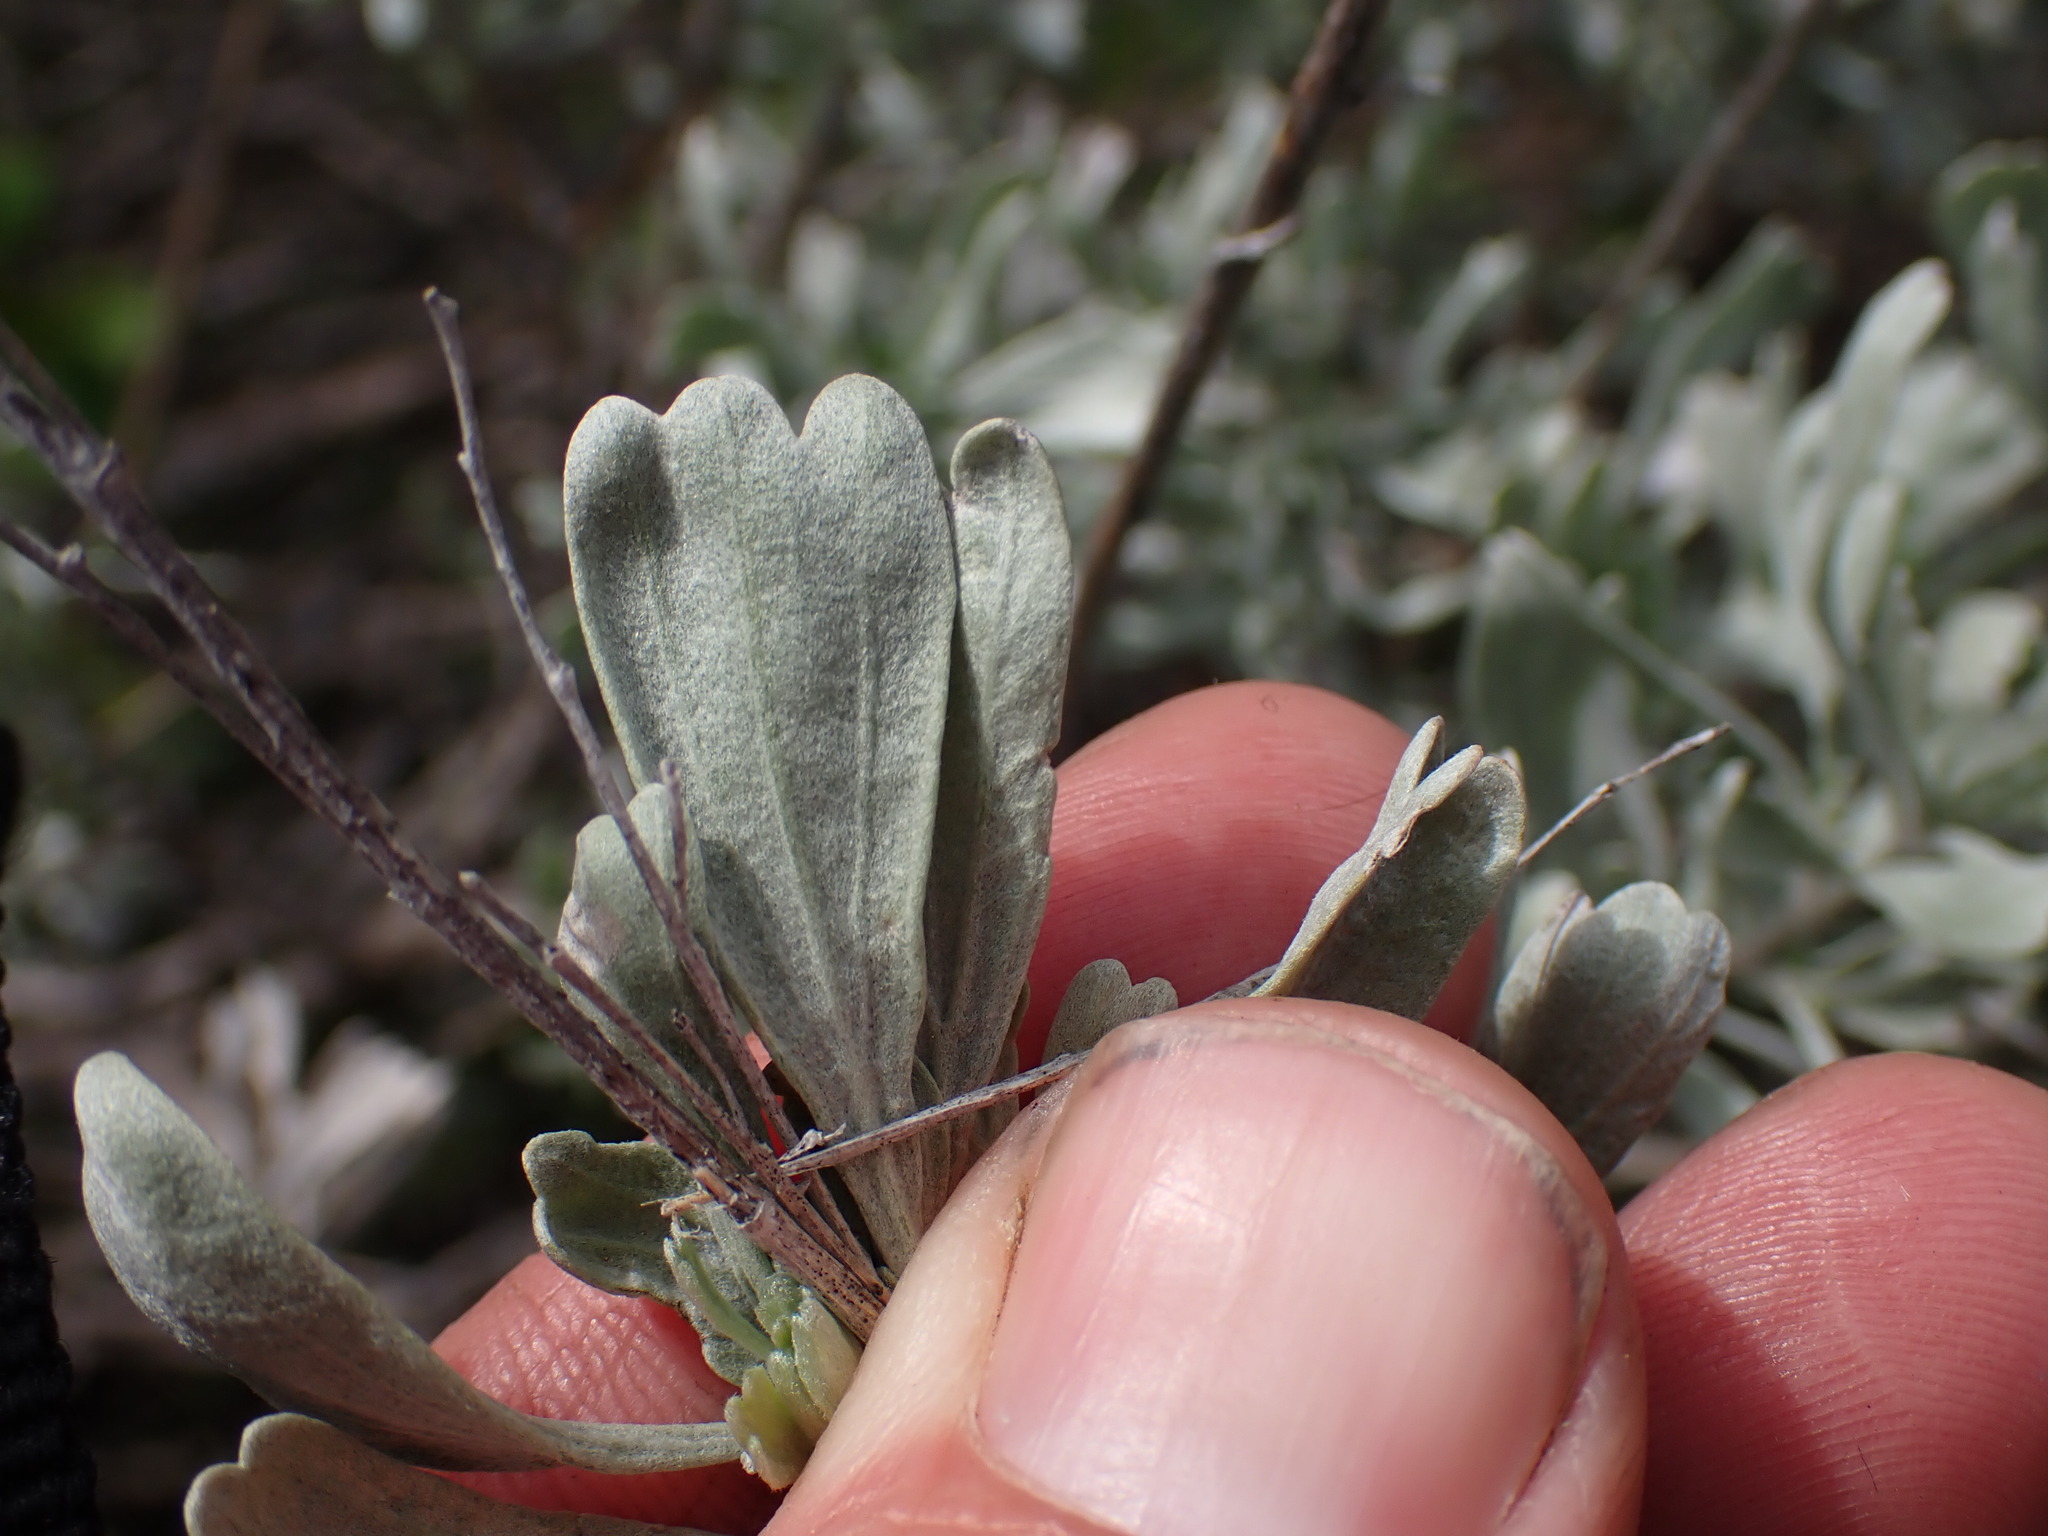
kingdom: Plantae
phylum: Tracheophyta
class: Magnoliopsida
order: Asterales
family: Asteraceae
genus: Artemisia
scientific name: Artemisia tridentata
